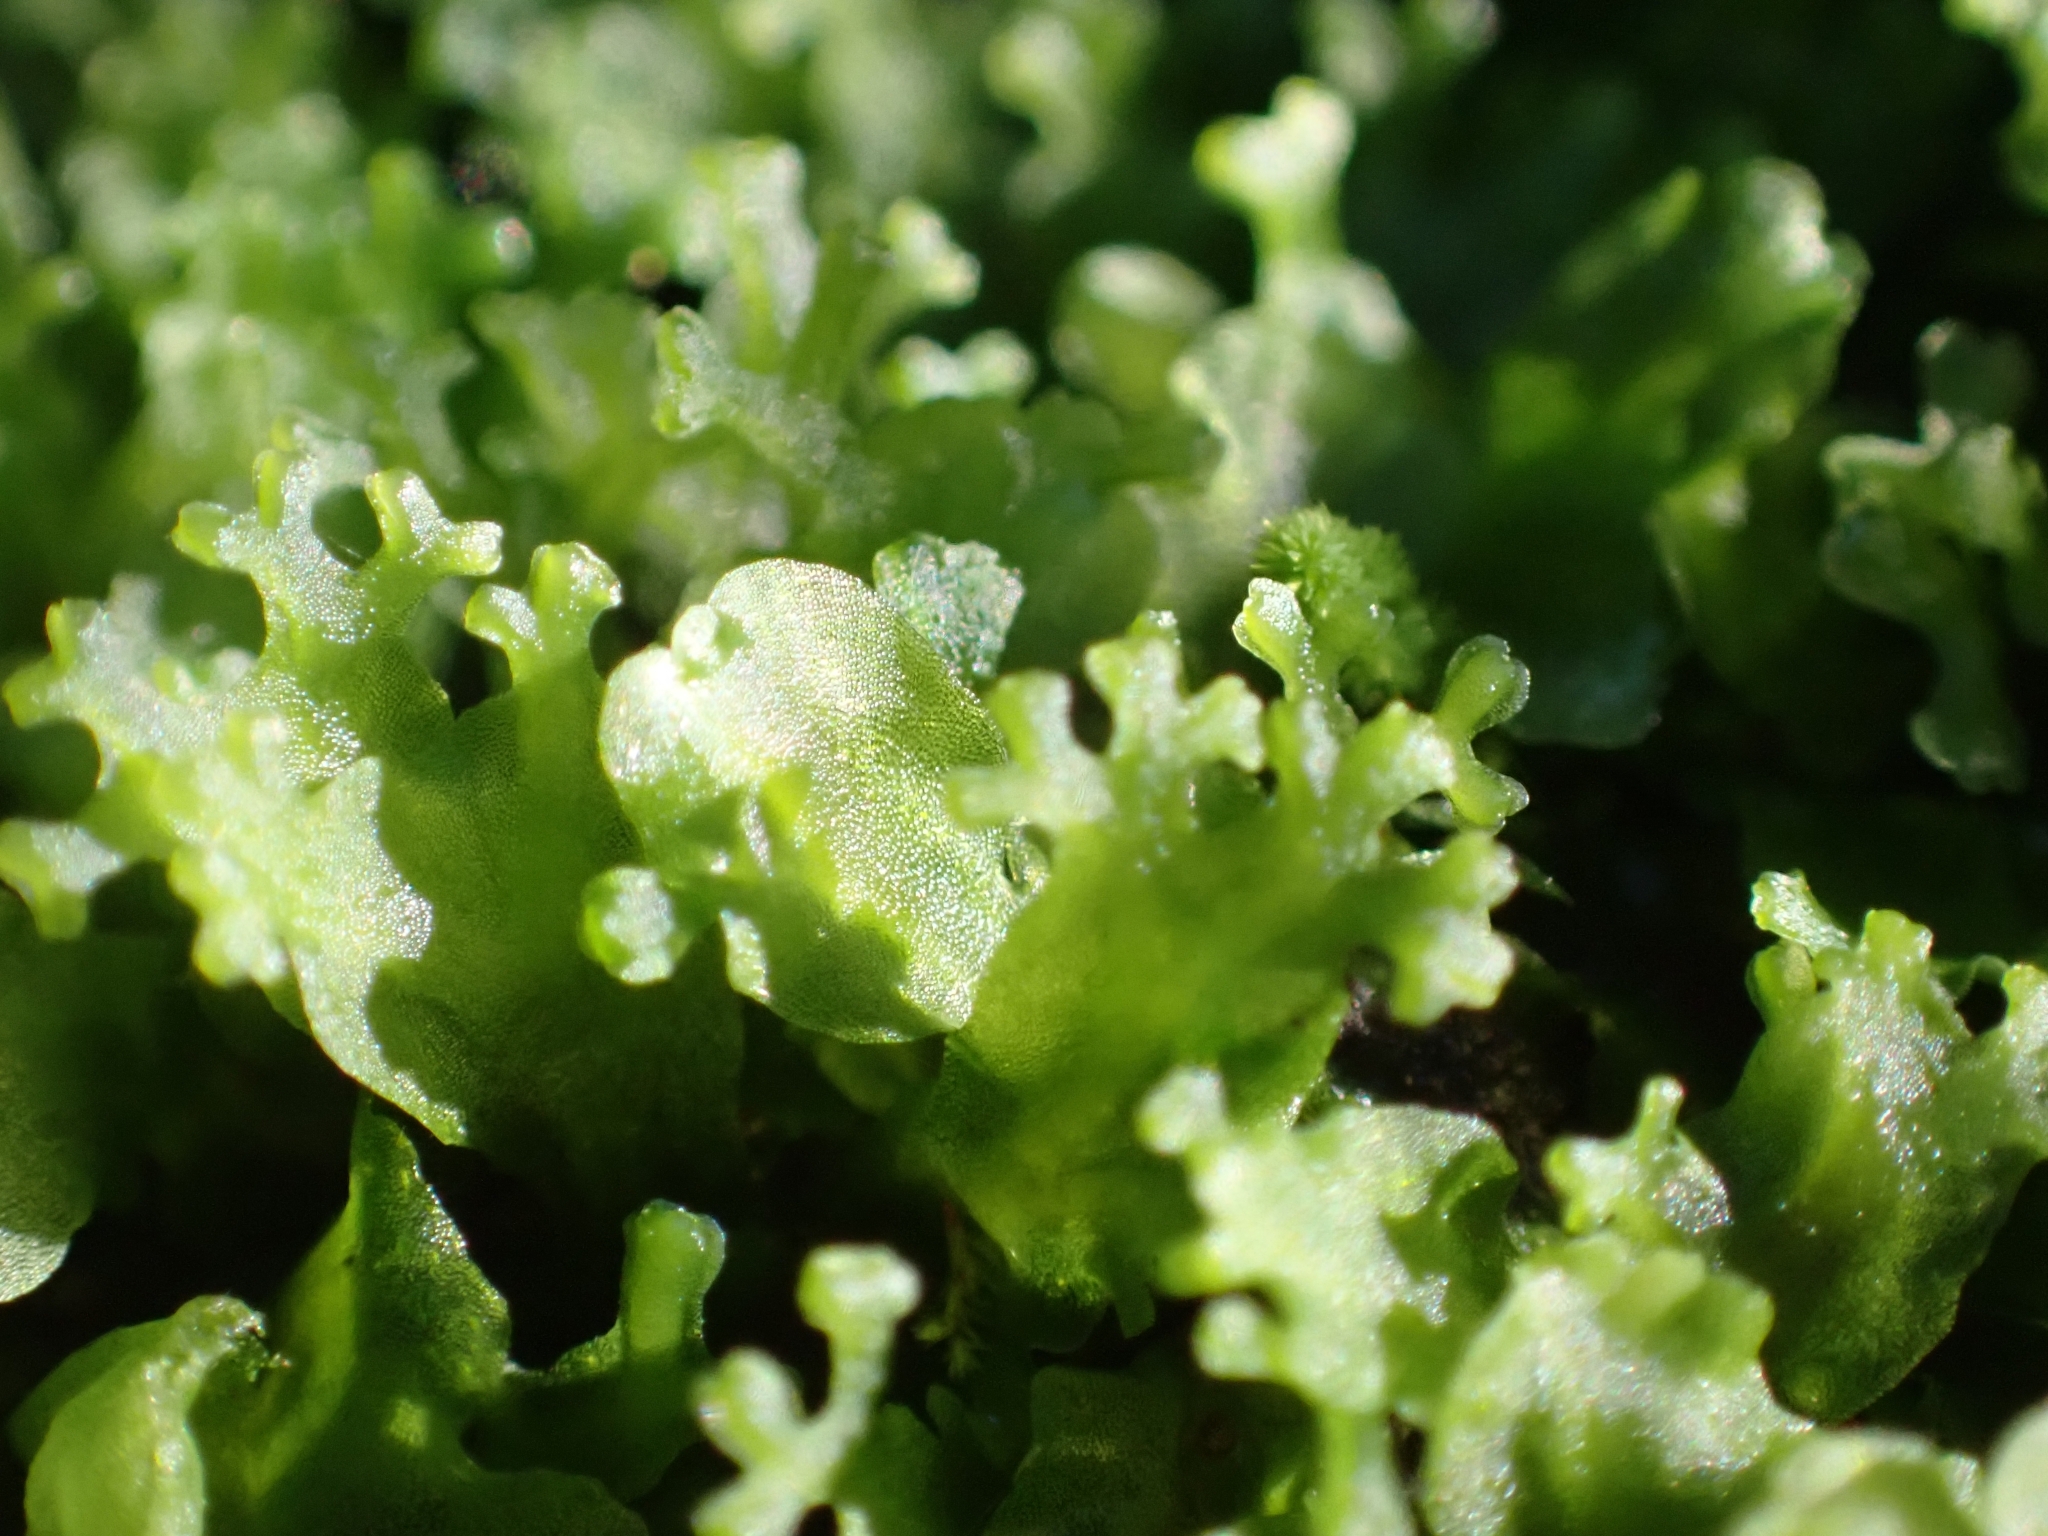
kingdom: Plantae
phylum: Marchantiophyta
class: Jungermanniopsida
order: Pelliales
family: Pelliaceae
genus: Apopellia
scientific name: Apopellia endiviifolia
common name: Endive pellia
